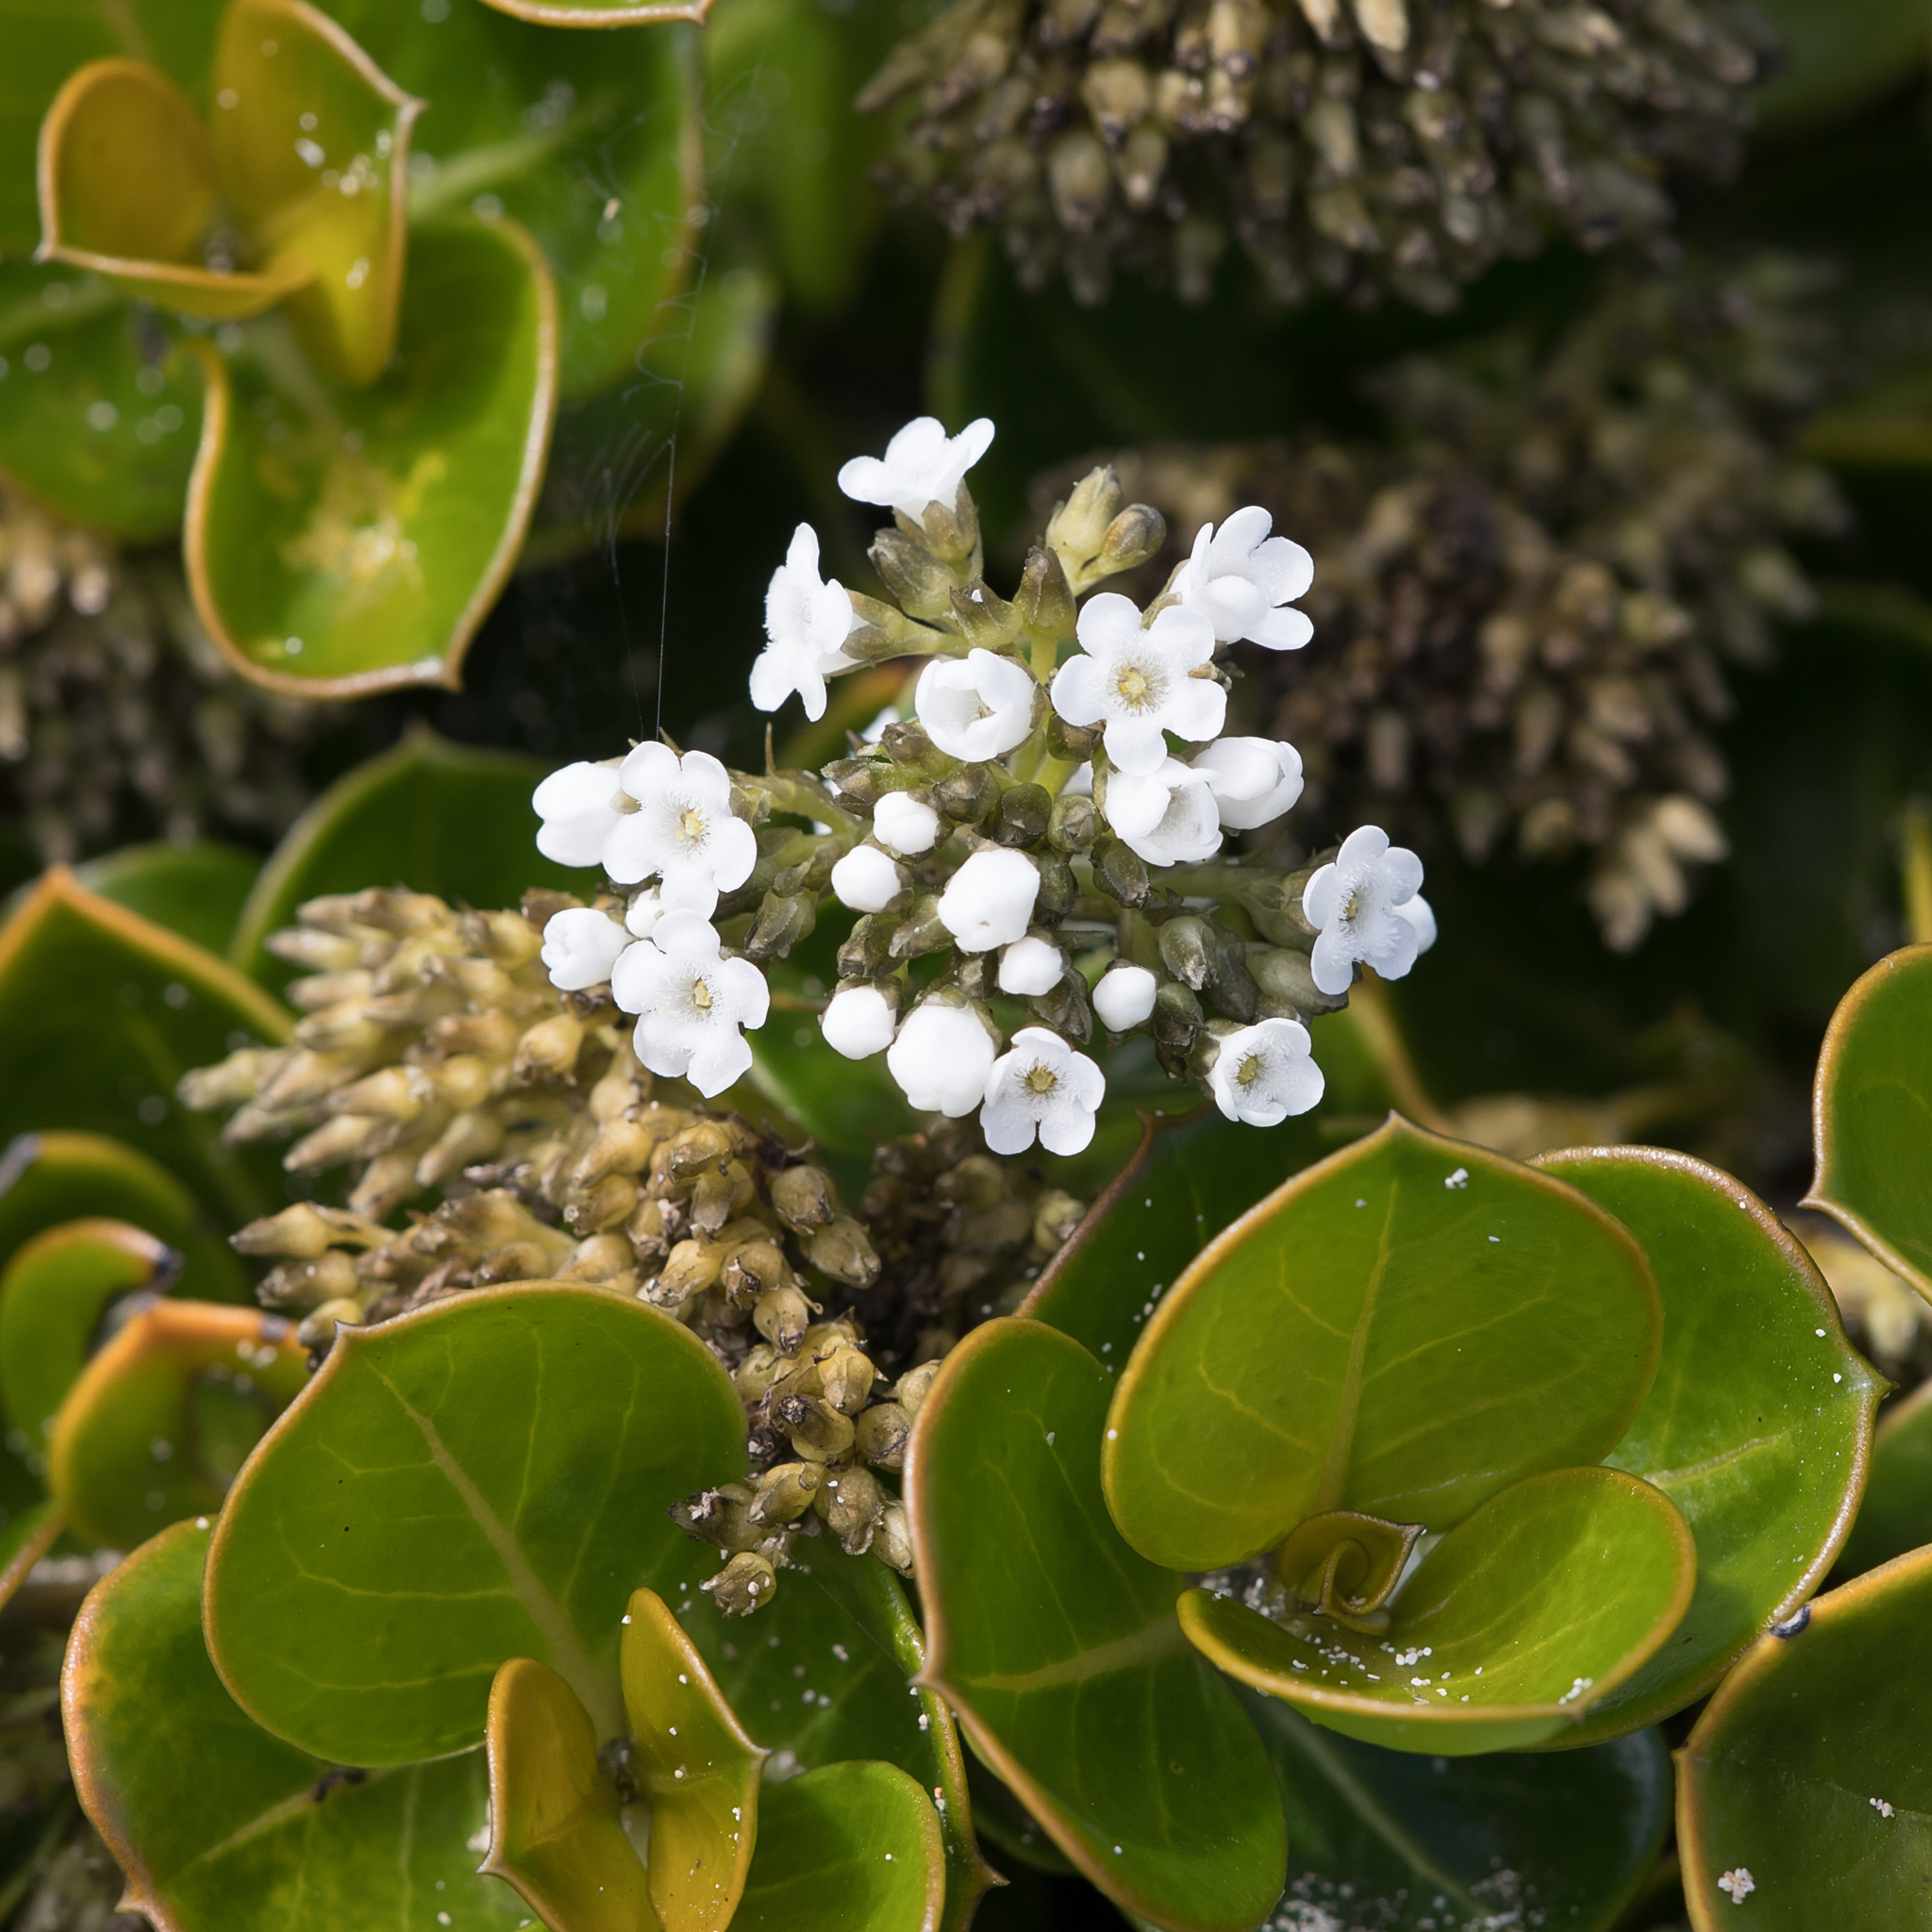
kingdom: Plantae
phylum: Tracheophyta
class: Magnoliopsida
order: Gentianales
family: Loganiaceae
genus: Logania
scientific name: Logania crassifolia
